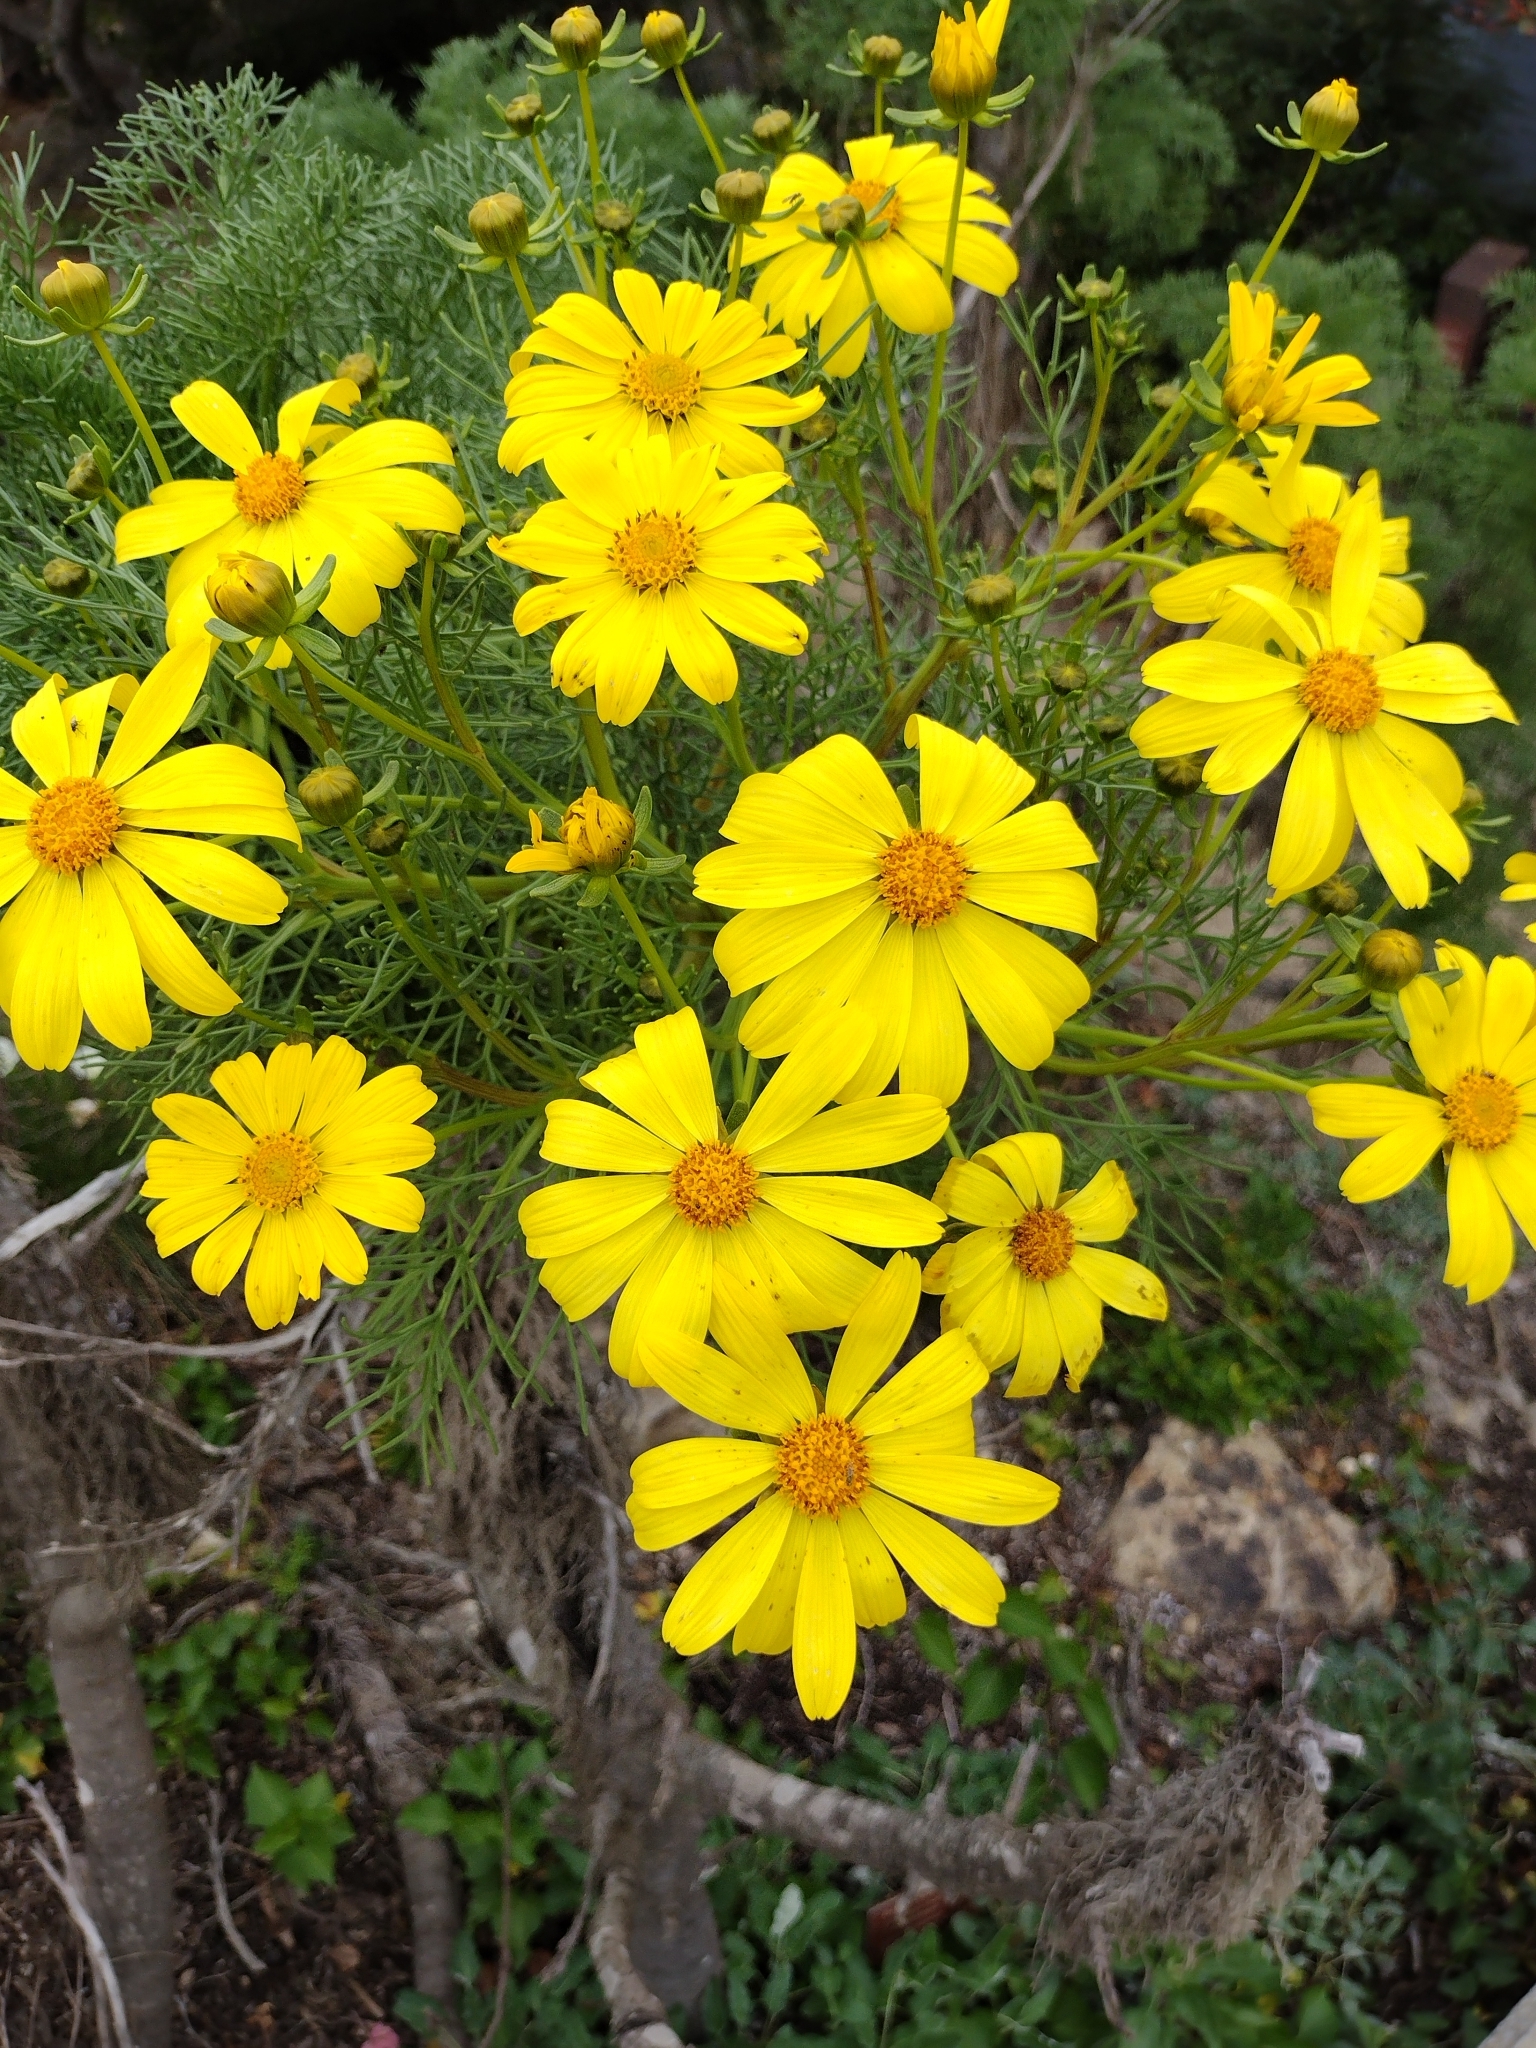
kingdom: Plantae
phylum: Tracheophyta
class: Magnoliopsida
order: Asterales
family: Asteraceae
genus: Coreopsis
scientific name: Coreopsis gigantea
